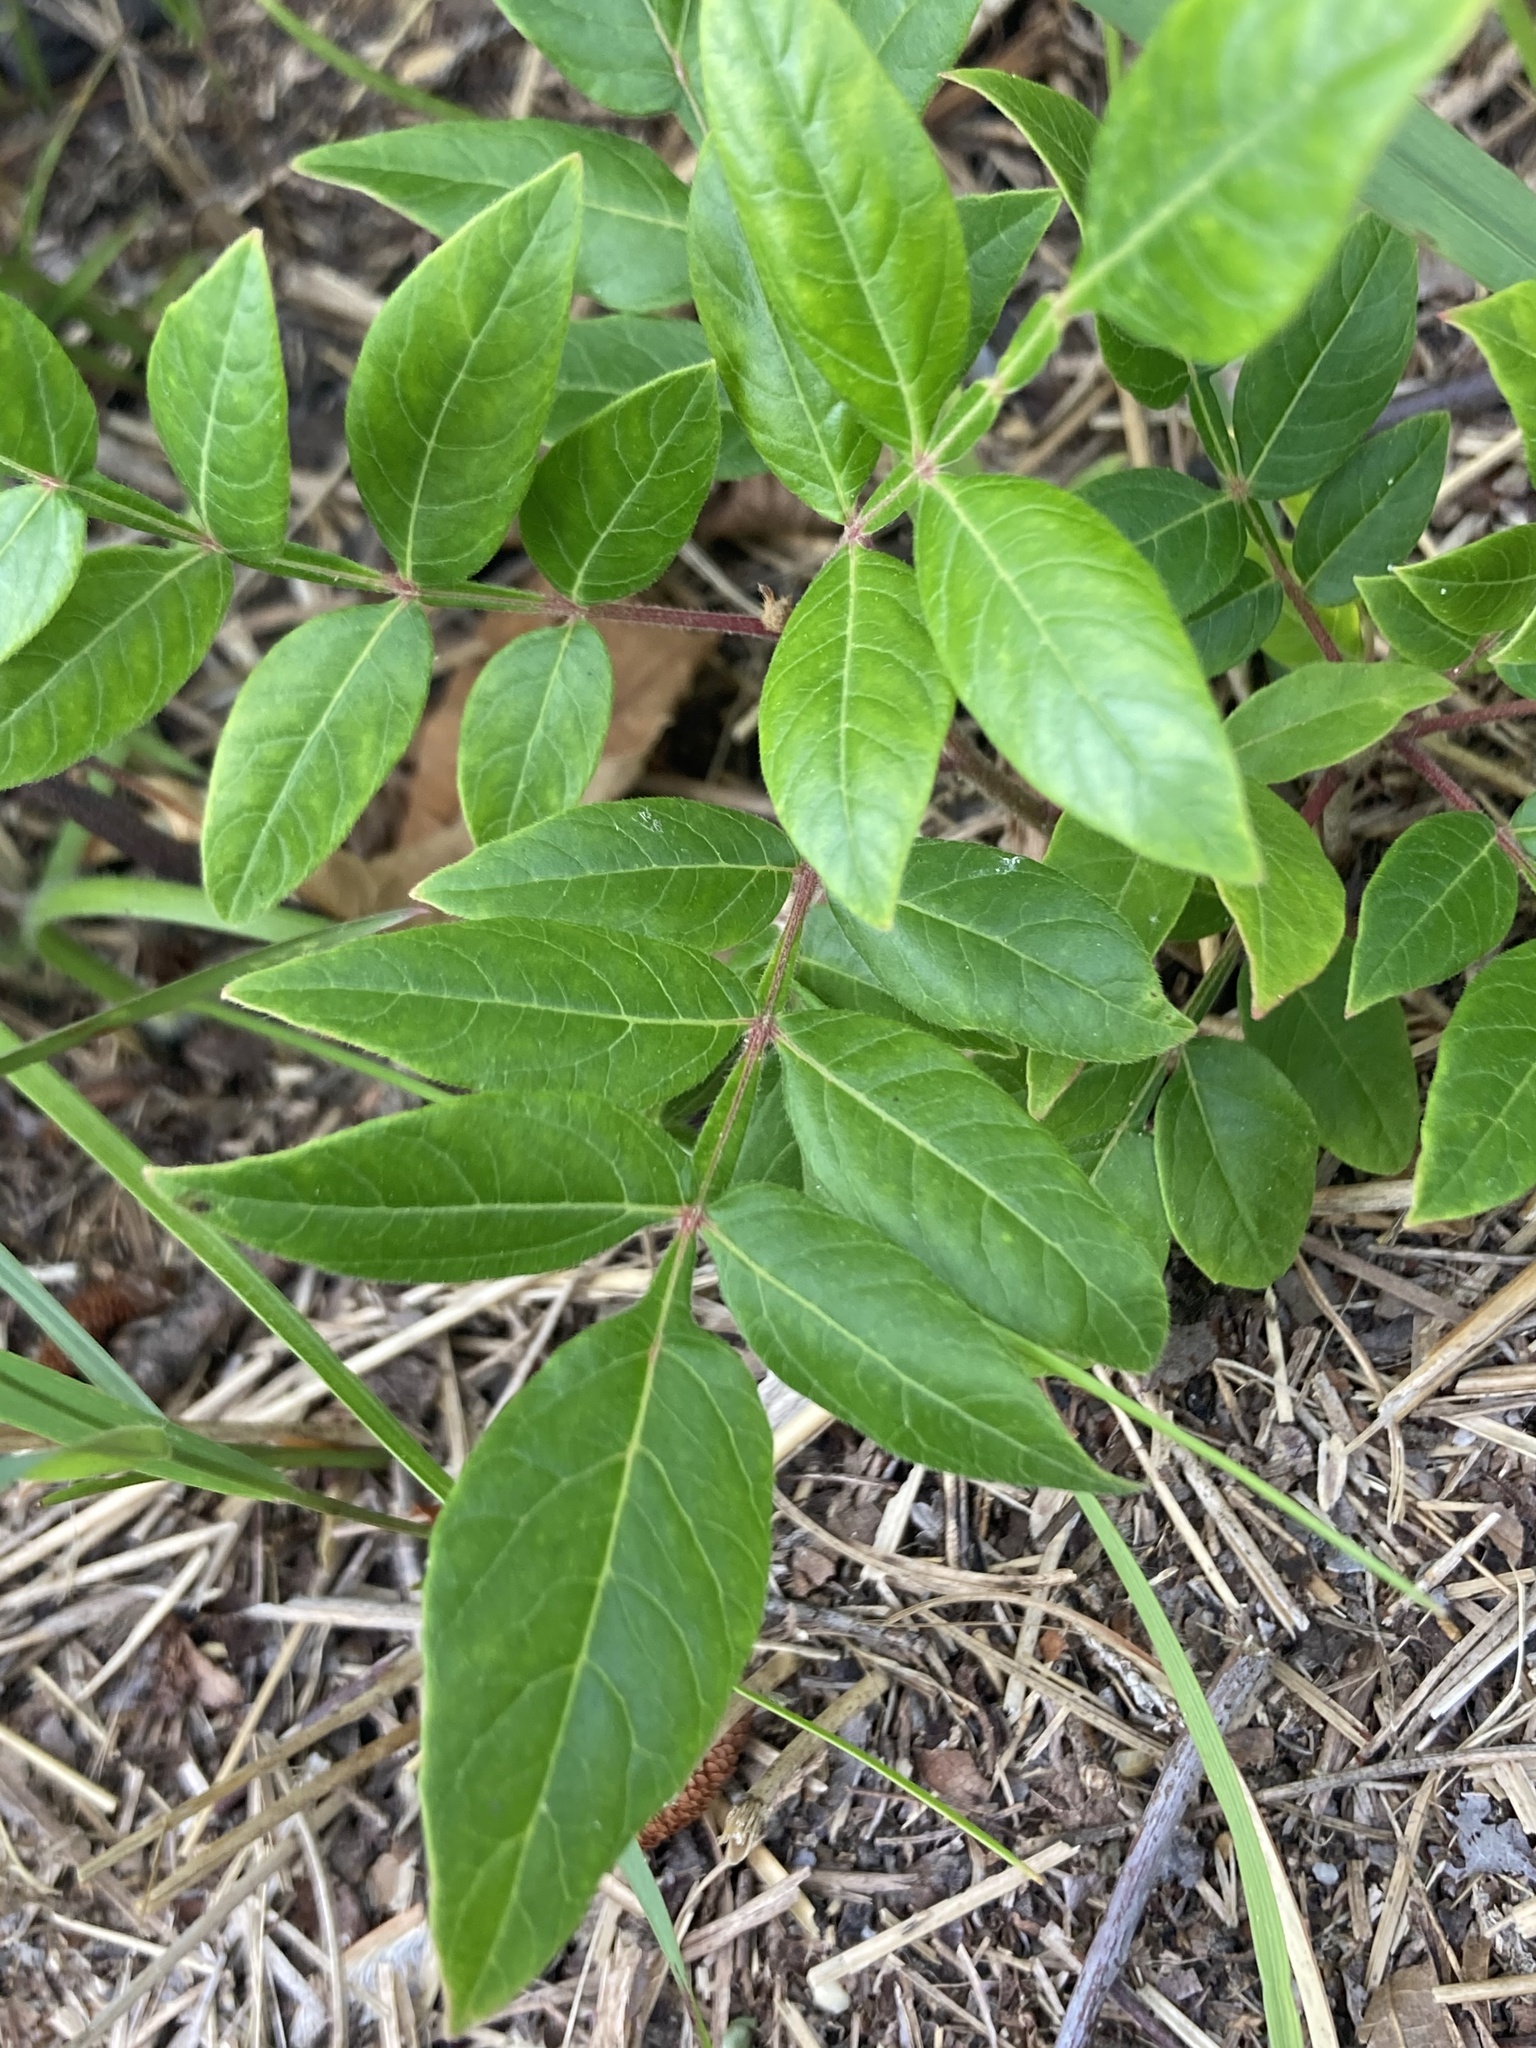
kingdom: Plantae
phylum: Tracheophyta
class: Magnoliopsida
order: Sapindales
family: Anacardiaceae
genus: Rhus
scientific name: Rhus copallina
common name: Shining sumac
